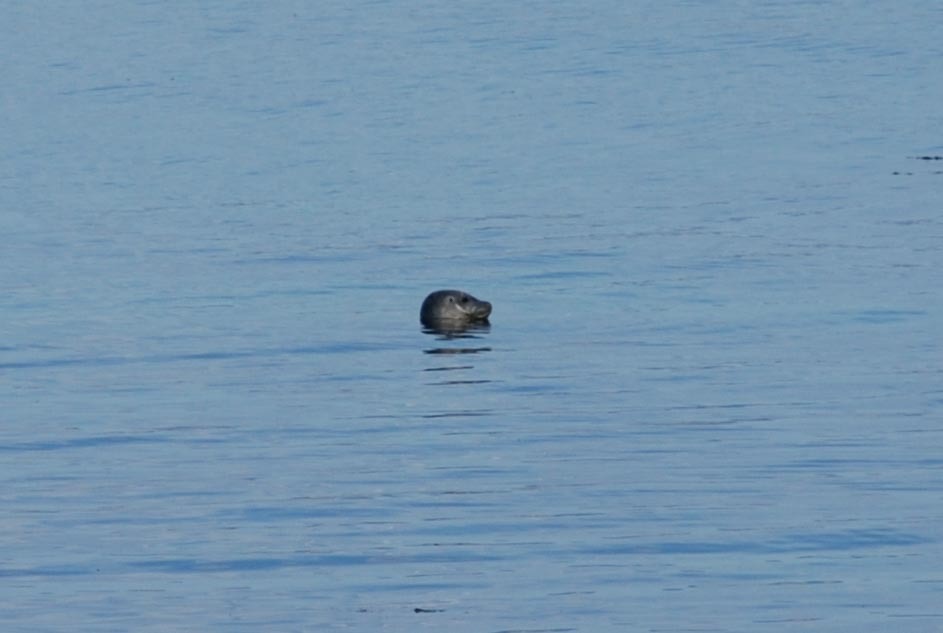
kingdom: Animalia
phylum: Chordata
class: Mammalia
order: Carnivora
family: Phocidae
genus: Phoca
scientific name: Phoca vitulina
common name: Harbor seal
